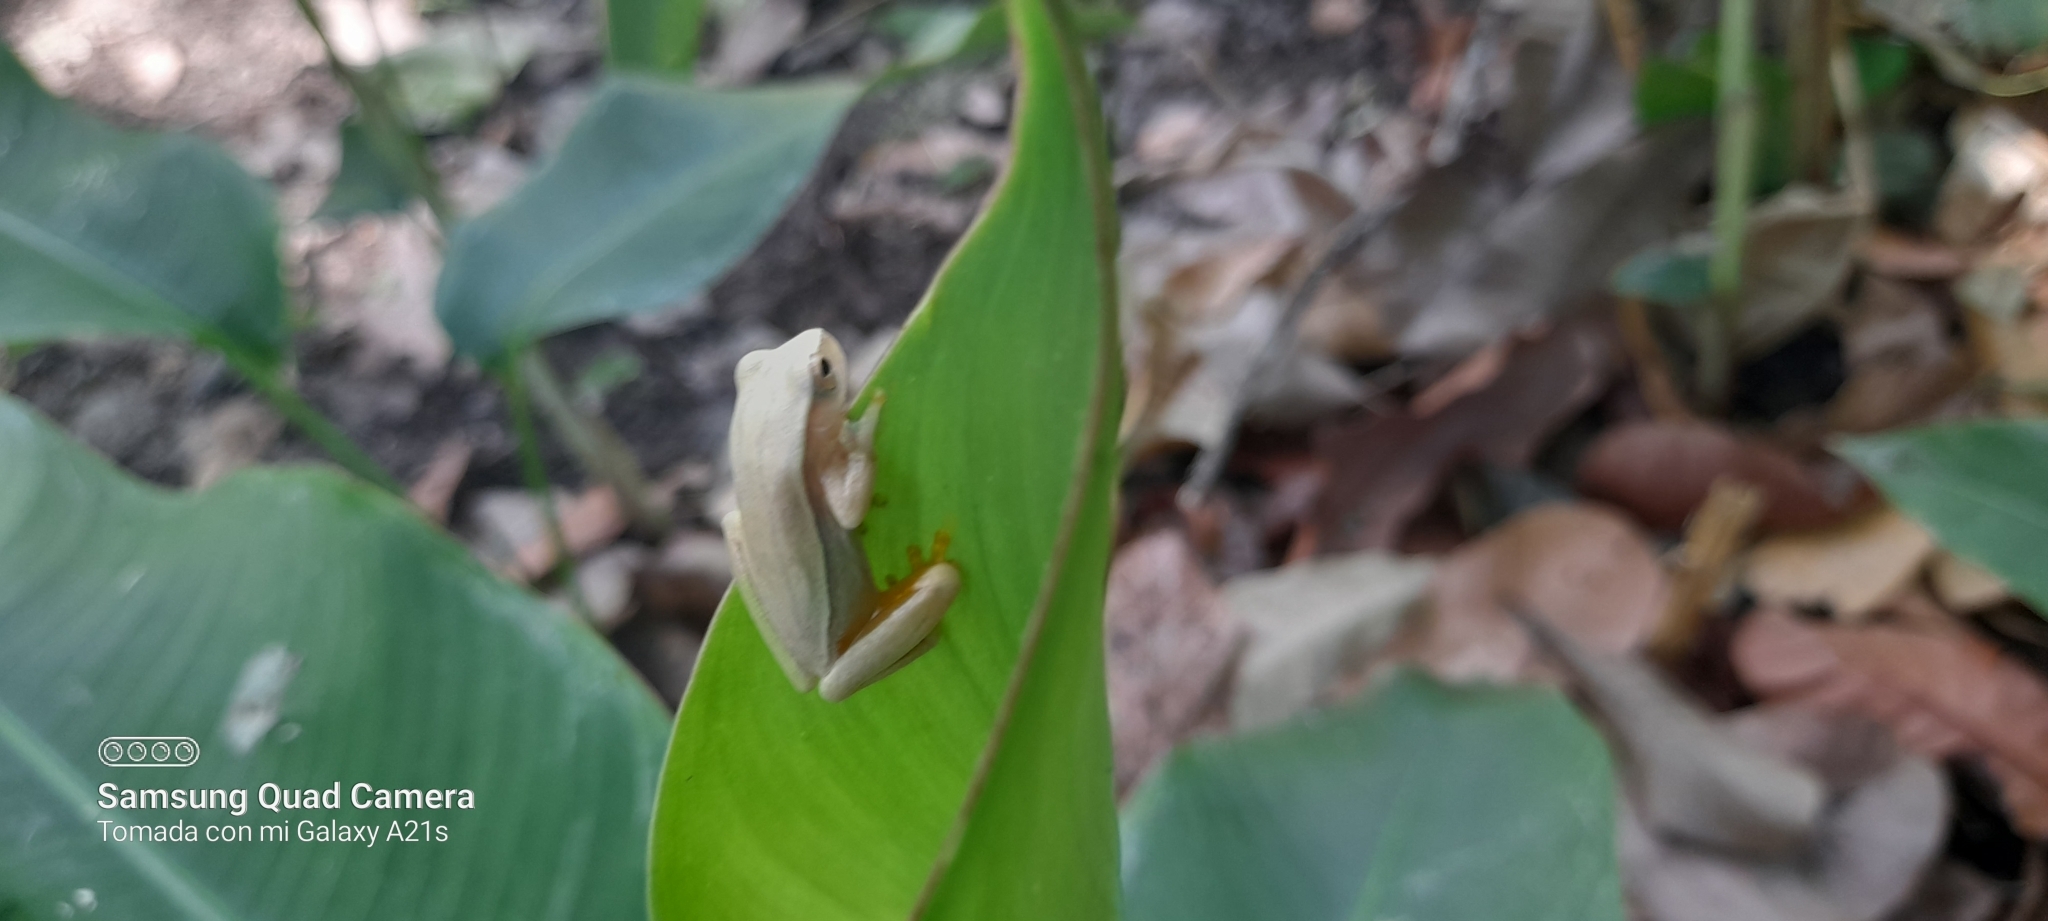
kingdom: Animalia
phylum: Chordata
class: Amphibia
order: Anura
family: Hylidae
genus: Dendropsophus
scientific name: Dendropsophus microcephalus
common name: Small-headed treefrog
